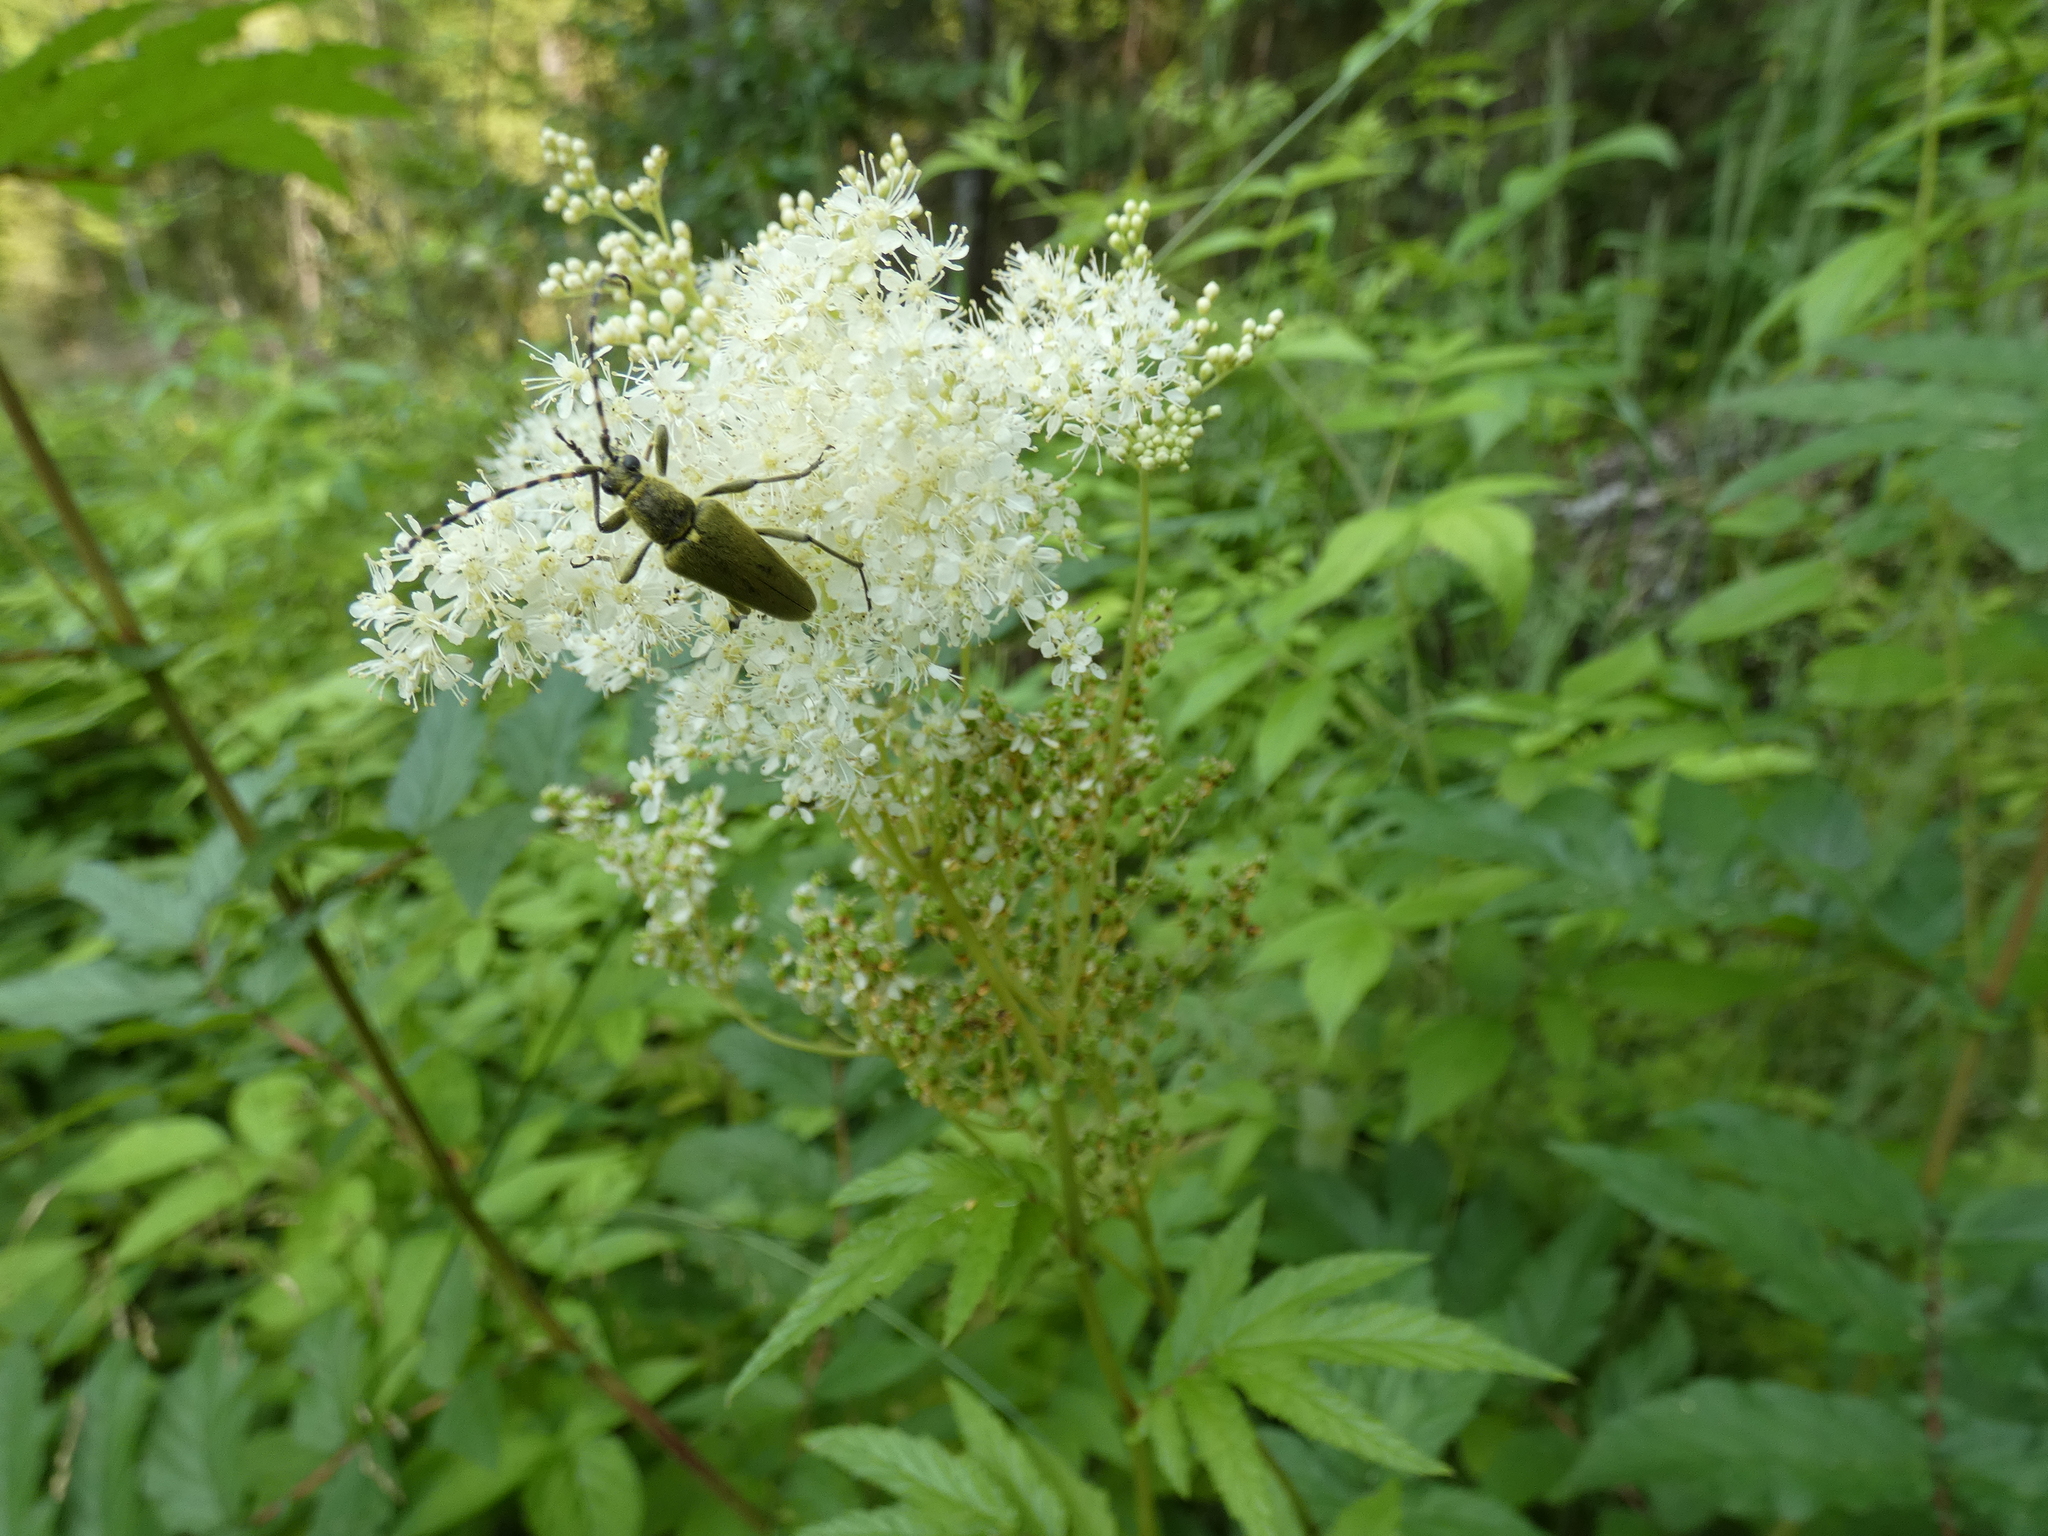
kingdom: Animalia
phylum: Arthropoda
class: Insecta
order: Coleoptera
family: Cerambycidae
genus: Lepturobosca
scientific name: Lepturobosca virens
